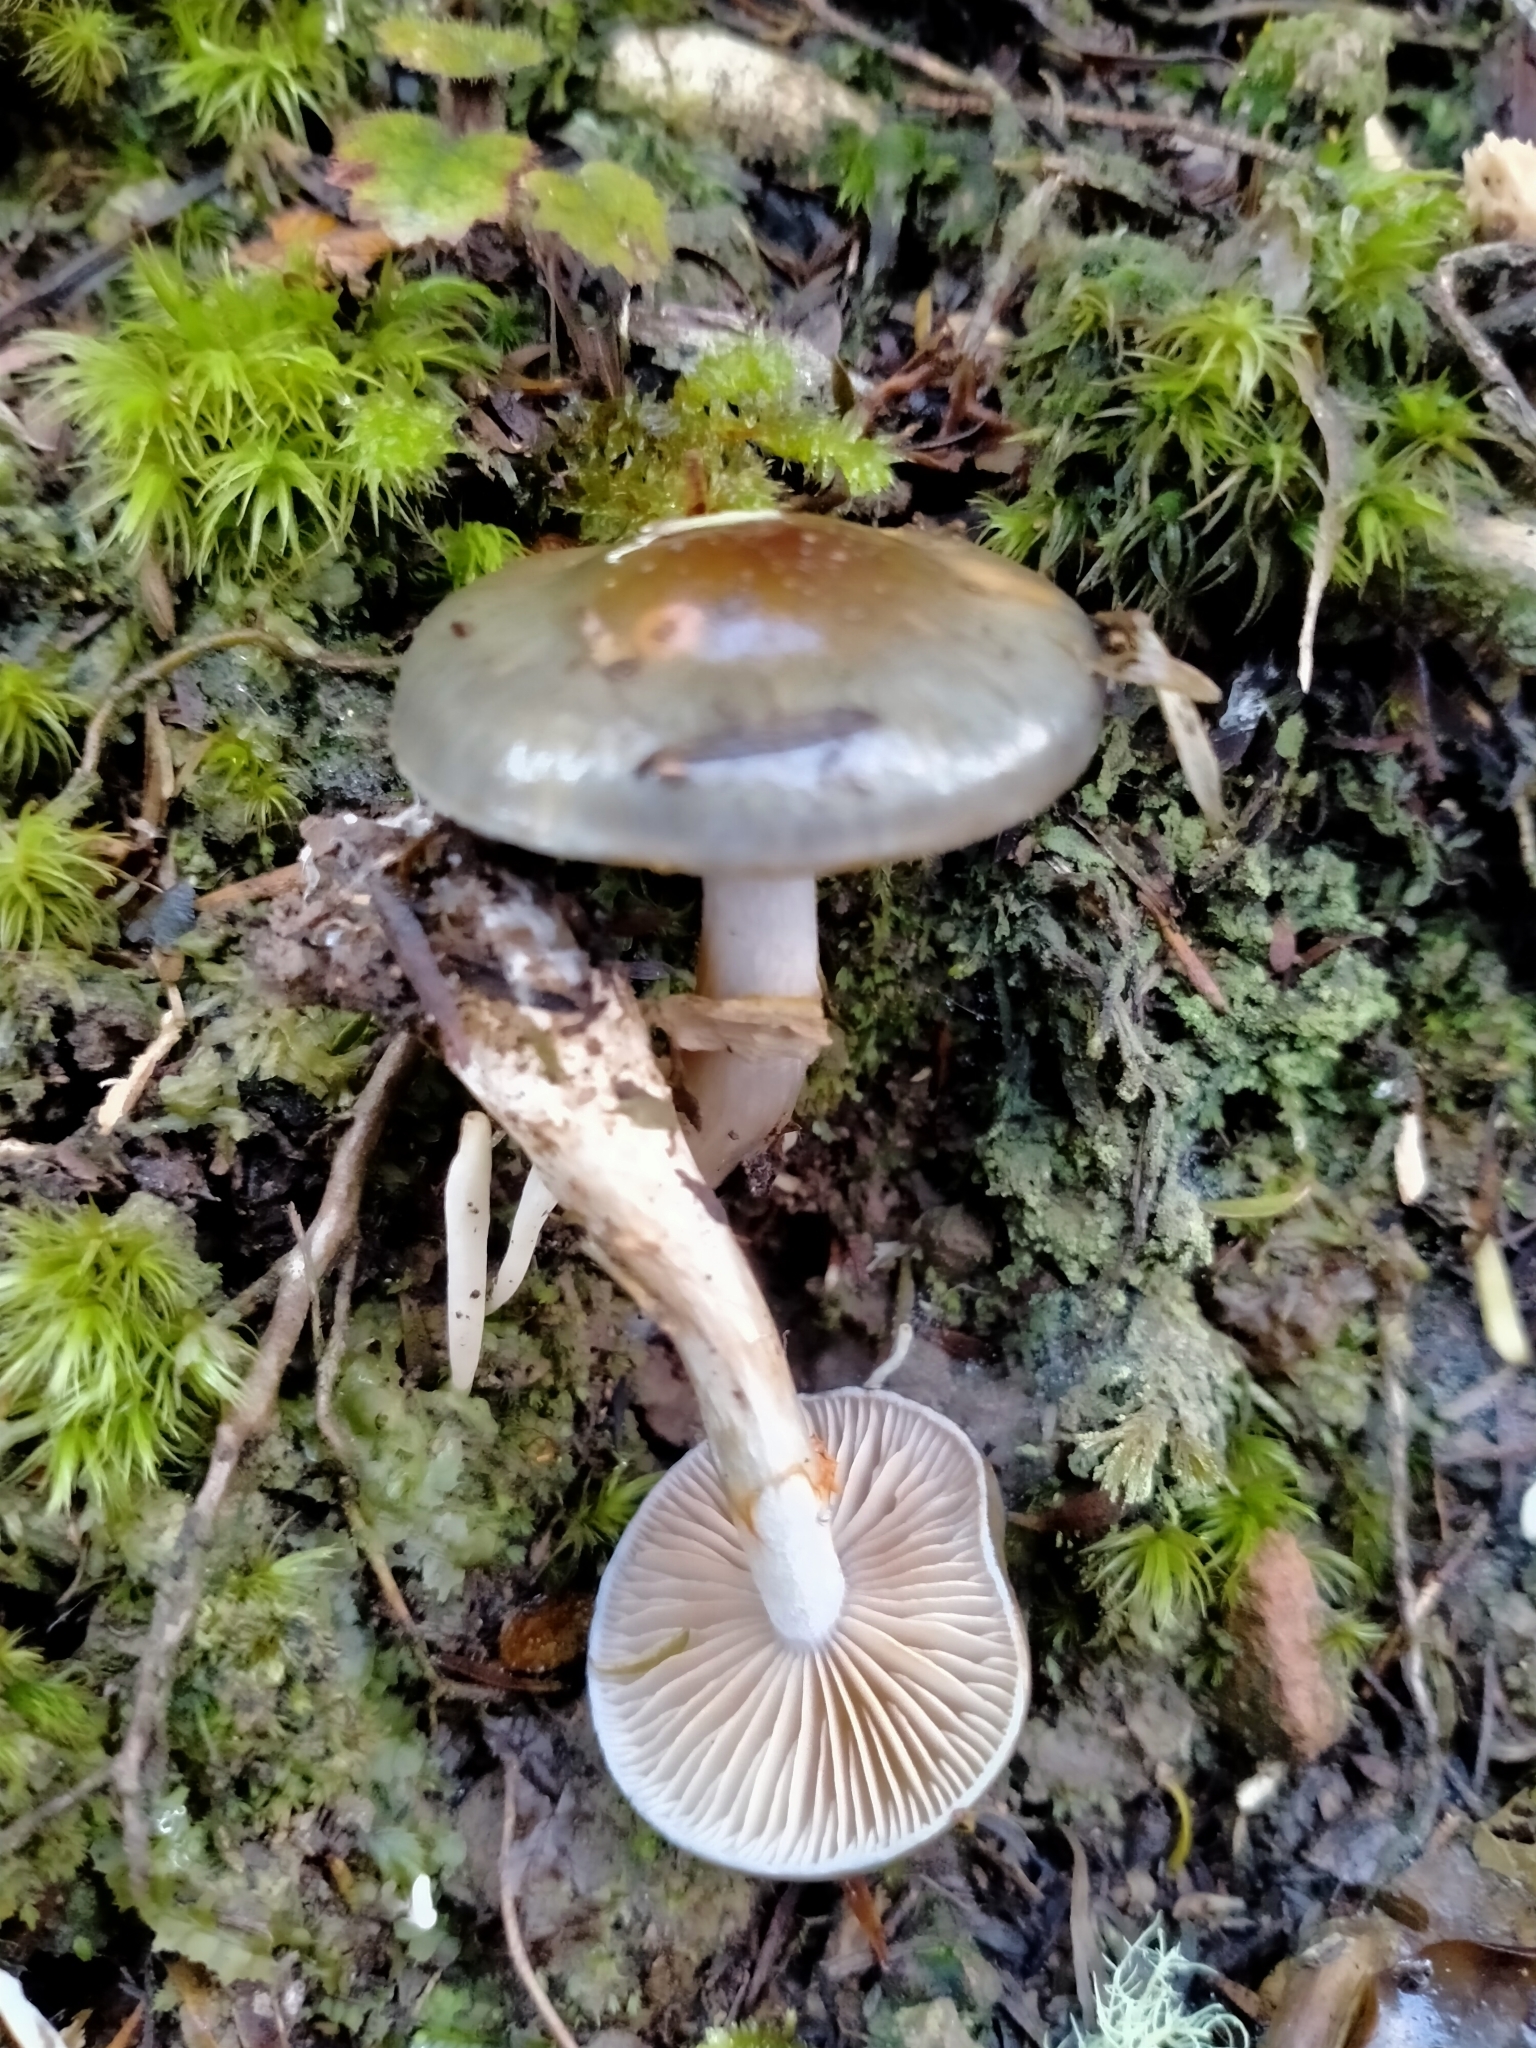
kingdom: Fungi
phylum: Basidiomycota
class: Agaricomycetes
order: Agaricales
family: Cortinariaceae
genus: Cortinarius
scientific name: Cortinarius rotundisporus
